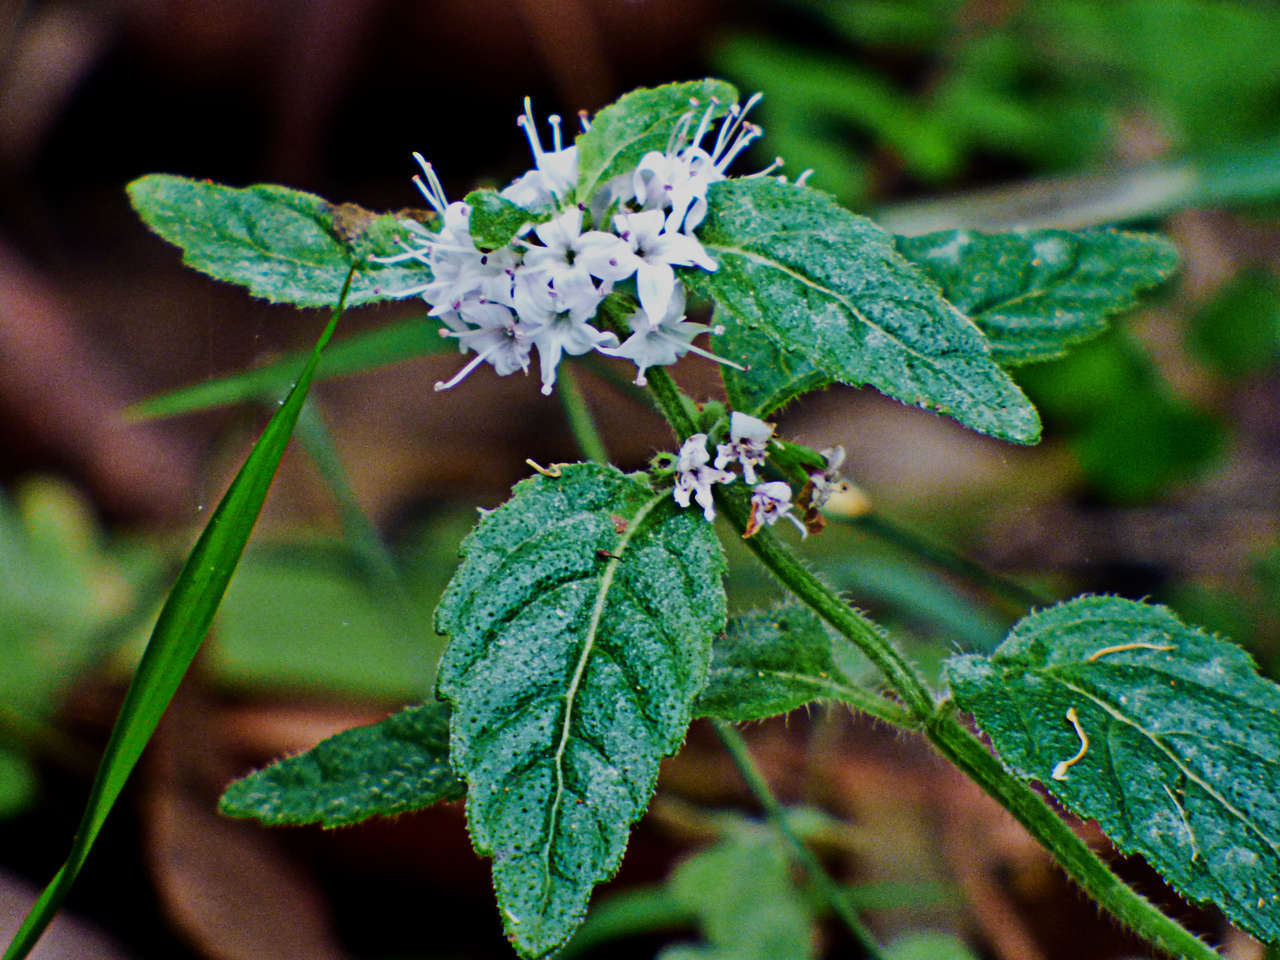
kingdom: Plantae
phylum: Tracheophyta
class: Magnoliopsida
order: Lamiales
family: Lamiaceae
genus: Mentha
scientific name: Mentha laxiflora
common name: Forest mint
